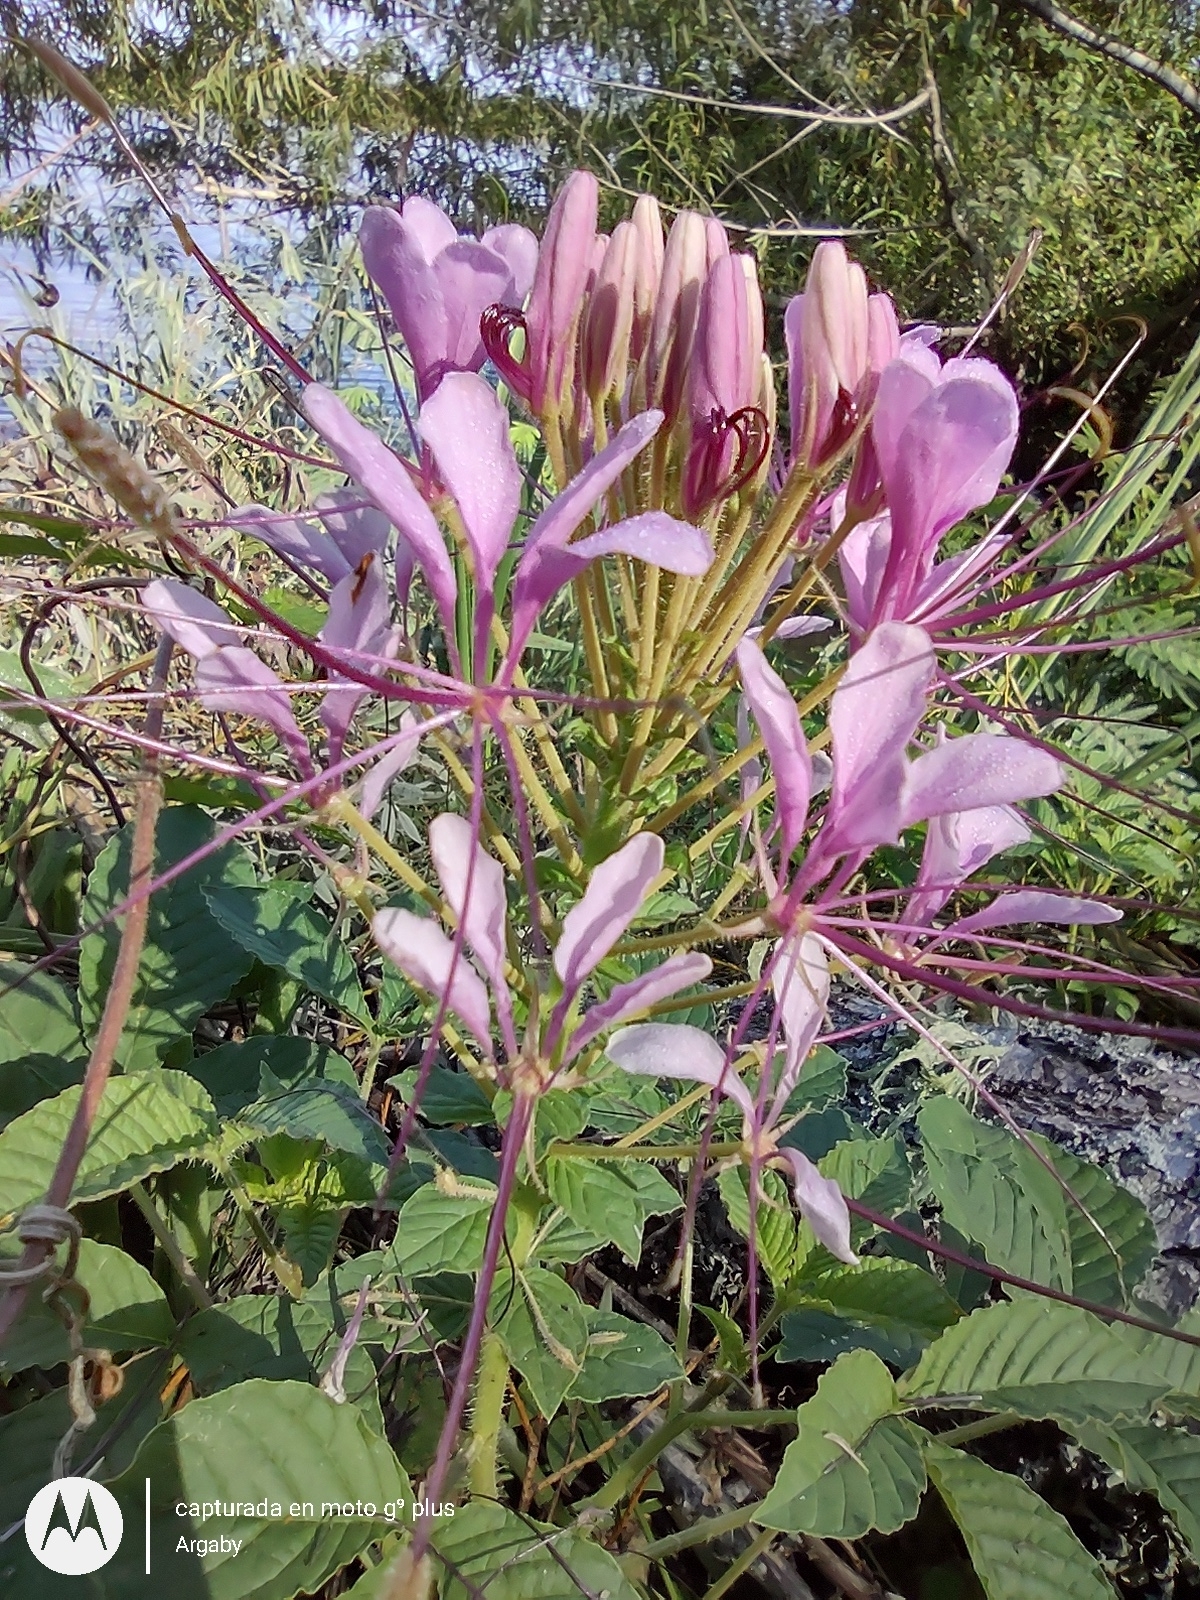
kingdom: Plantae
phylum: Tracheophyta
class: Magnoliopsida
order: Brassicales
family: Cleomaceae
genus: Tarenaya
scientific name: Tarenaya houtteana
